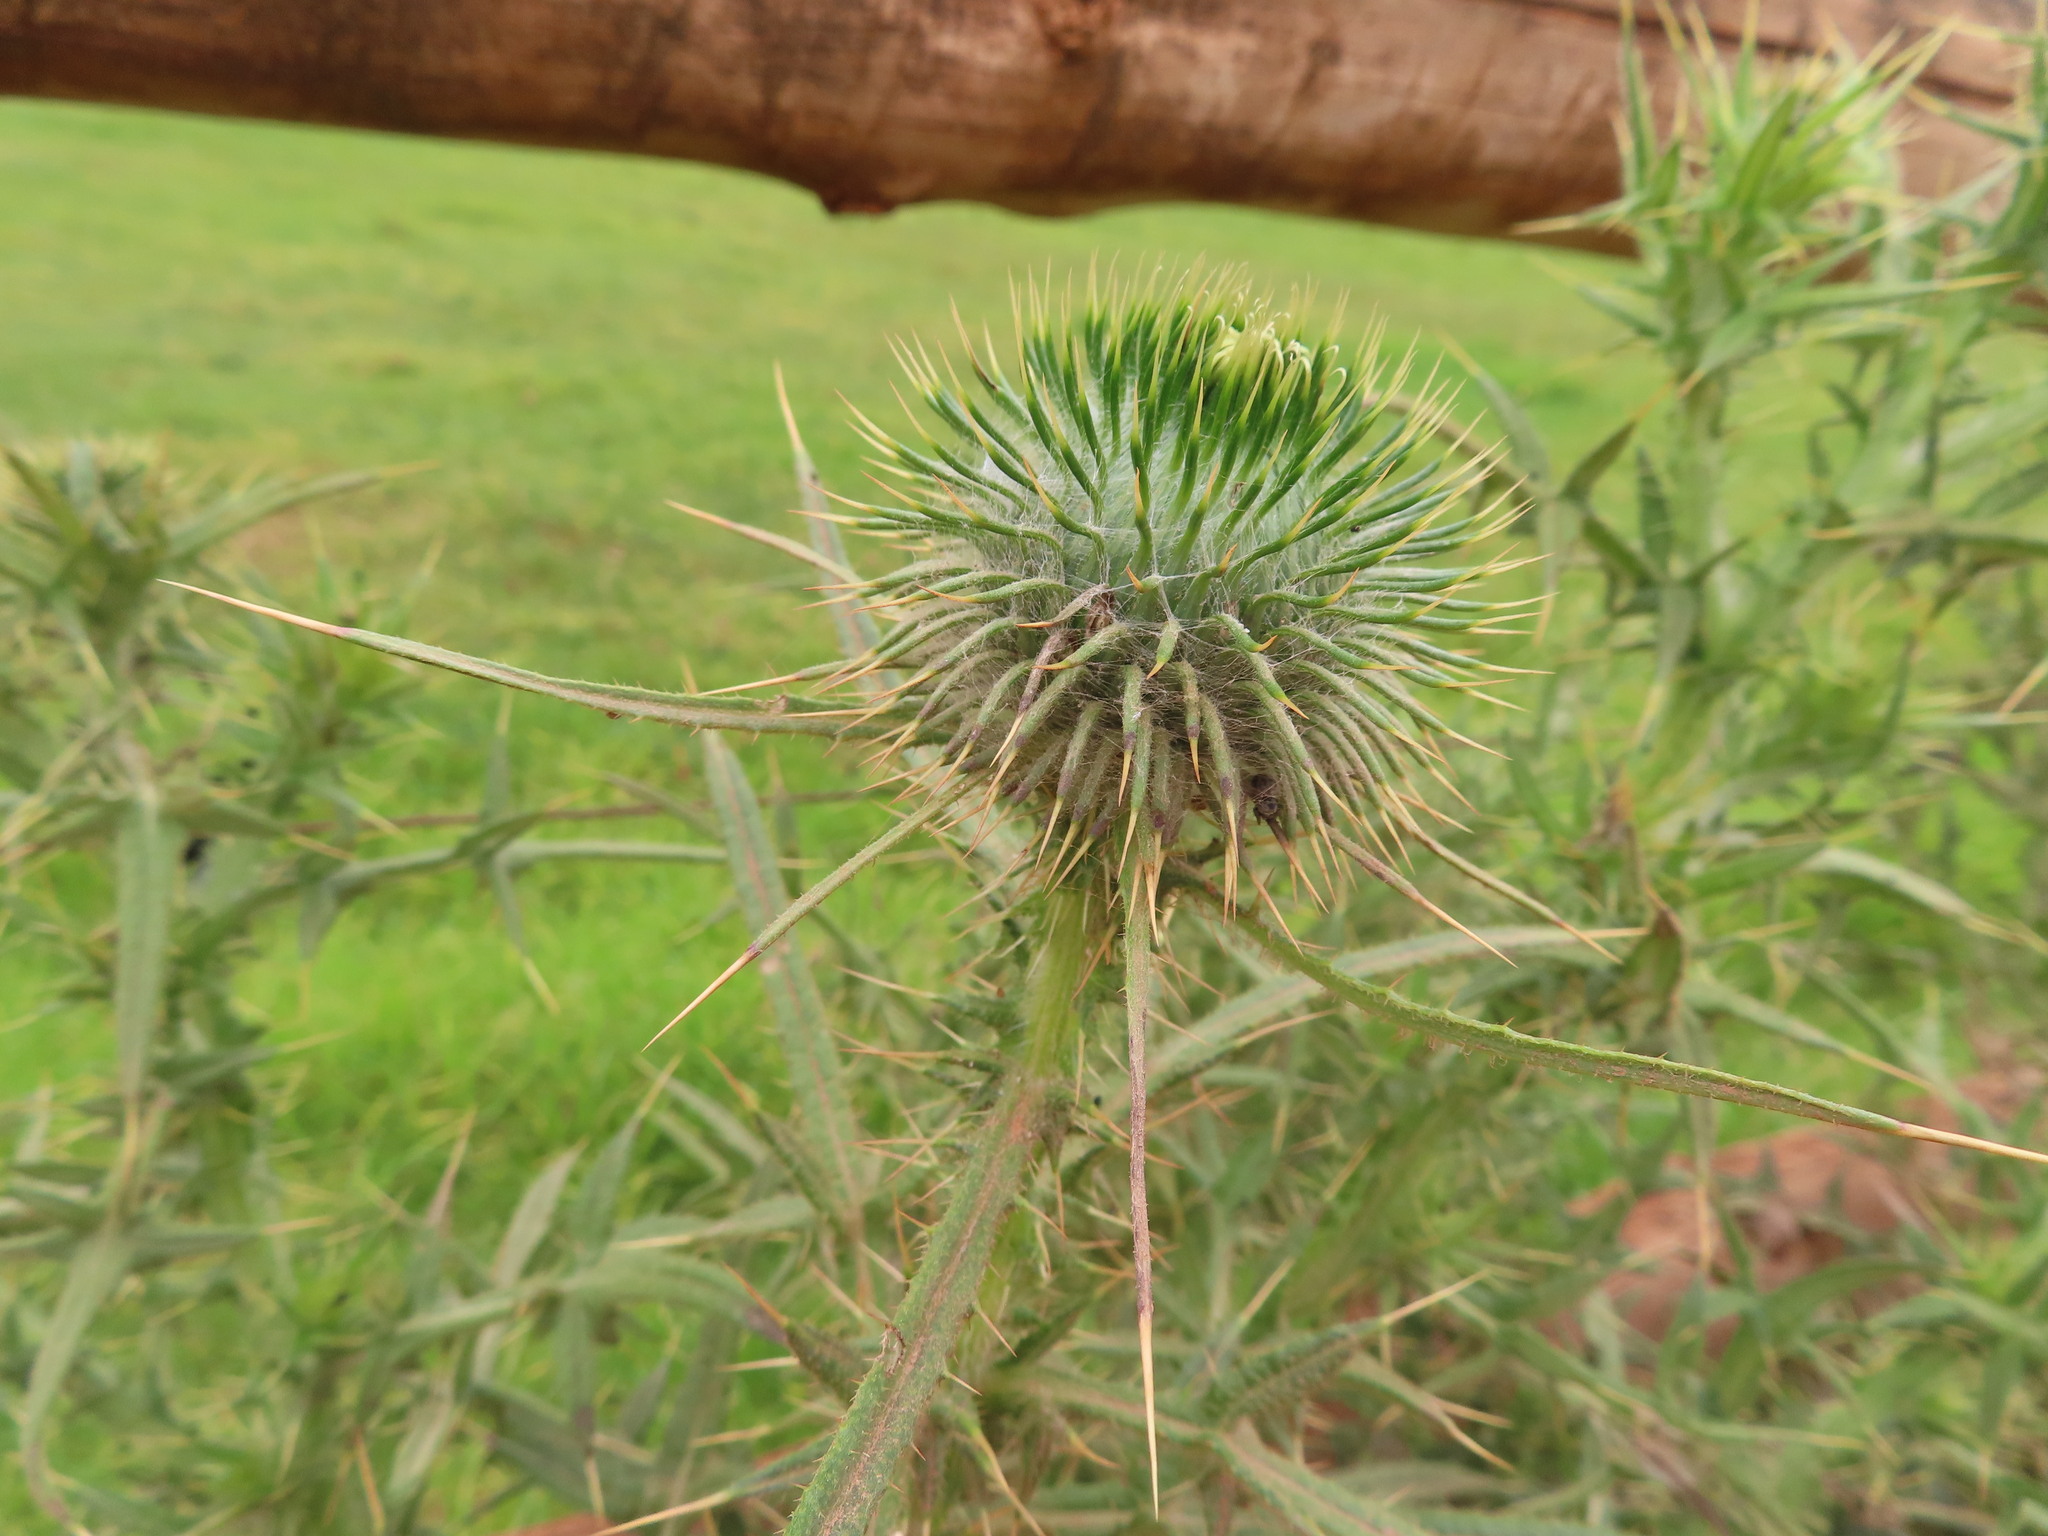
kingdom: Plantae
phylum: Tracheophyta
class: Magnoliopsida
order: Asterales
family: Asteraceae
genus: Cirsium
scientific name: Cirsium vulgare
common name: Bull thistle
